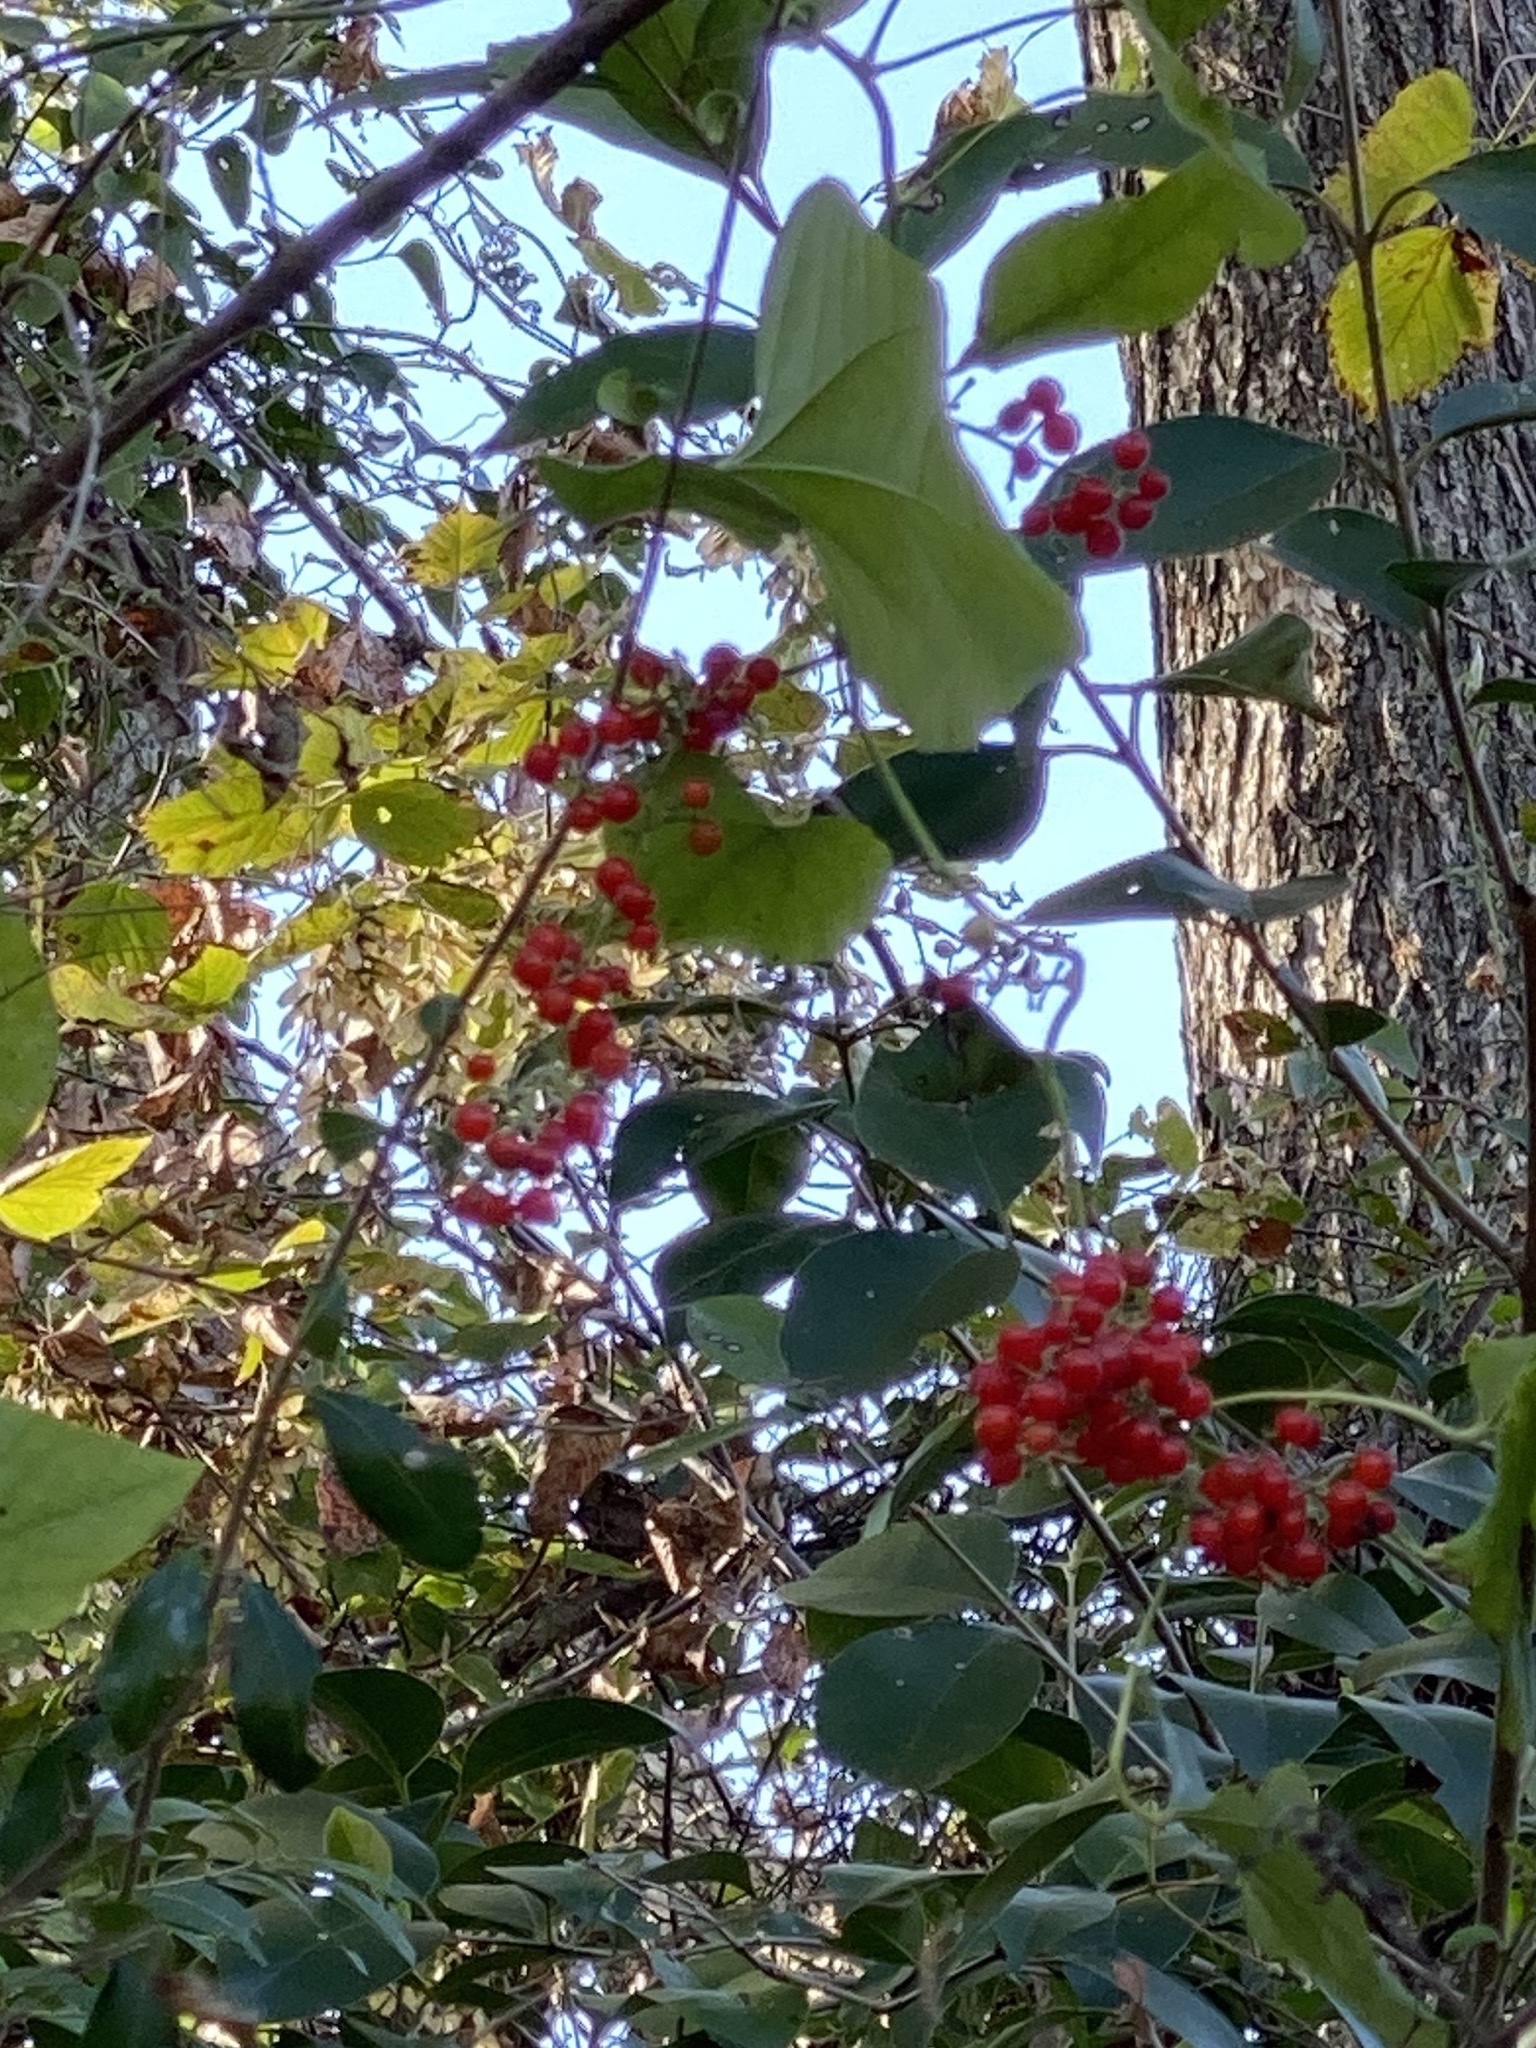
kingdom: Plantae
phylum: Tracheophyta
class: Magnoliopsida
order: Ranunculales
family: Menispermaceae
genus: Cocculus
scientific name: Cocculus carolinus
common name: Carolina moonseed
